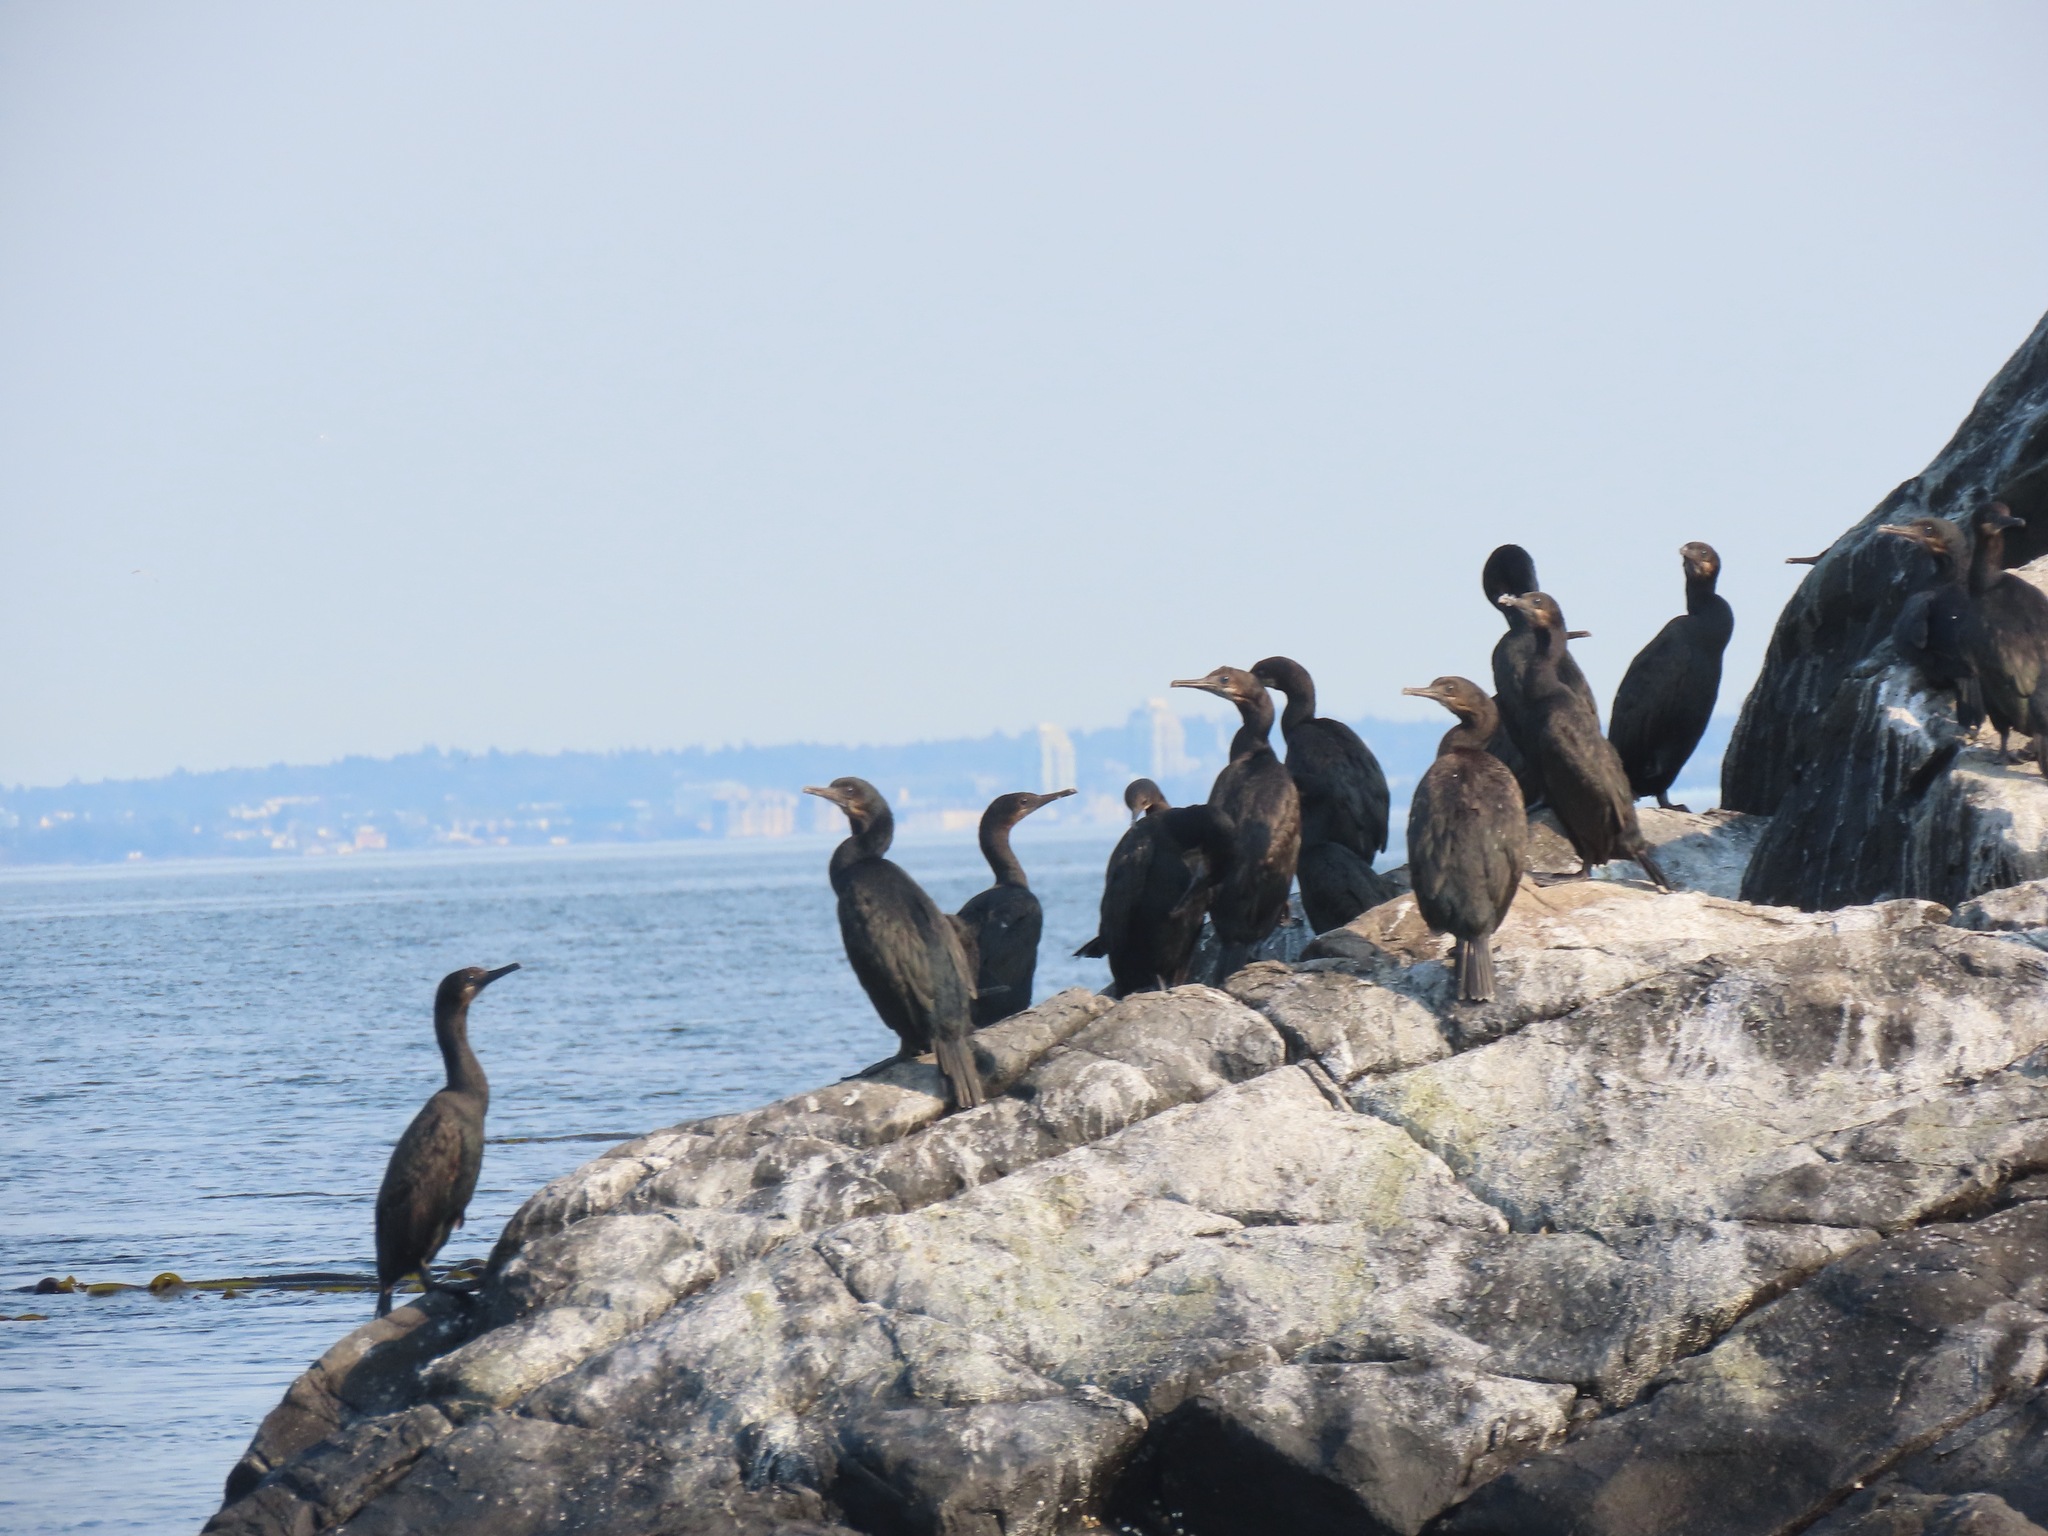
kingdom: Animalia
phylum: Chordata
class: Aves
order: Suliformes
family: Phalacrocoracidae
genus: Urile
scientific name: Urile penicillatus
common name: Brandt's cormorant
